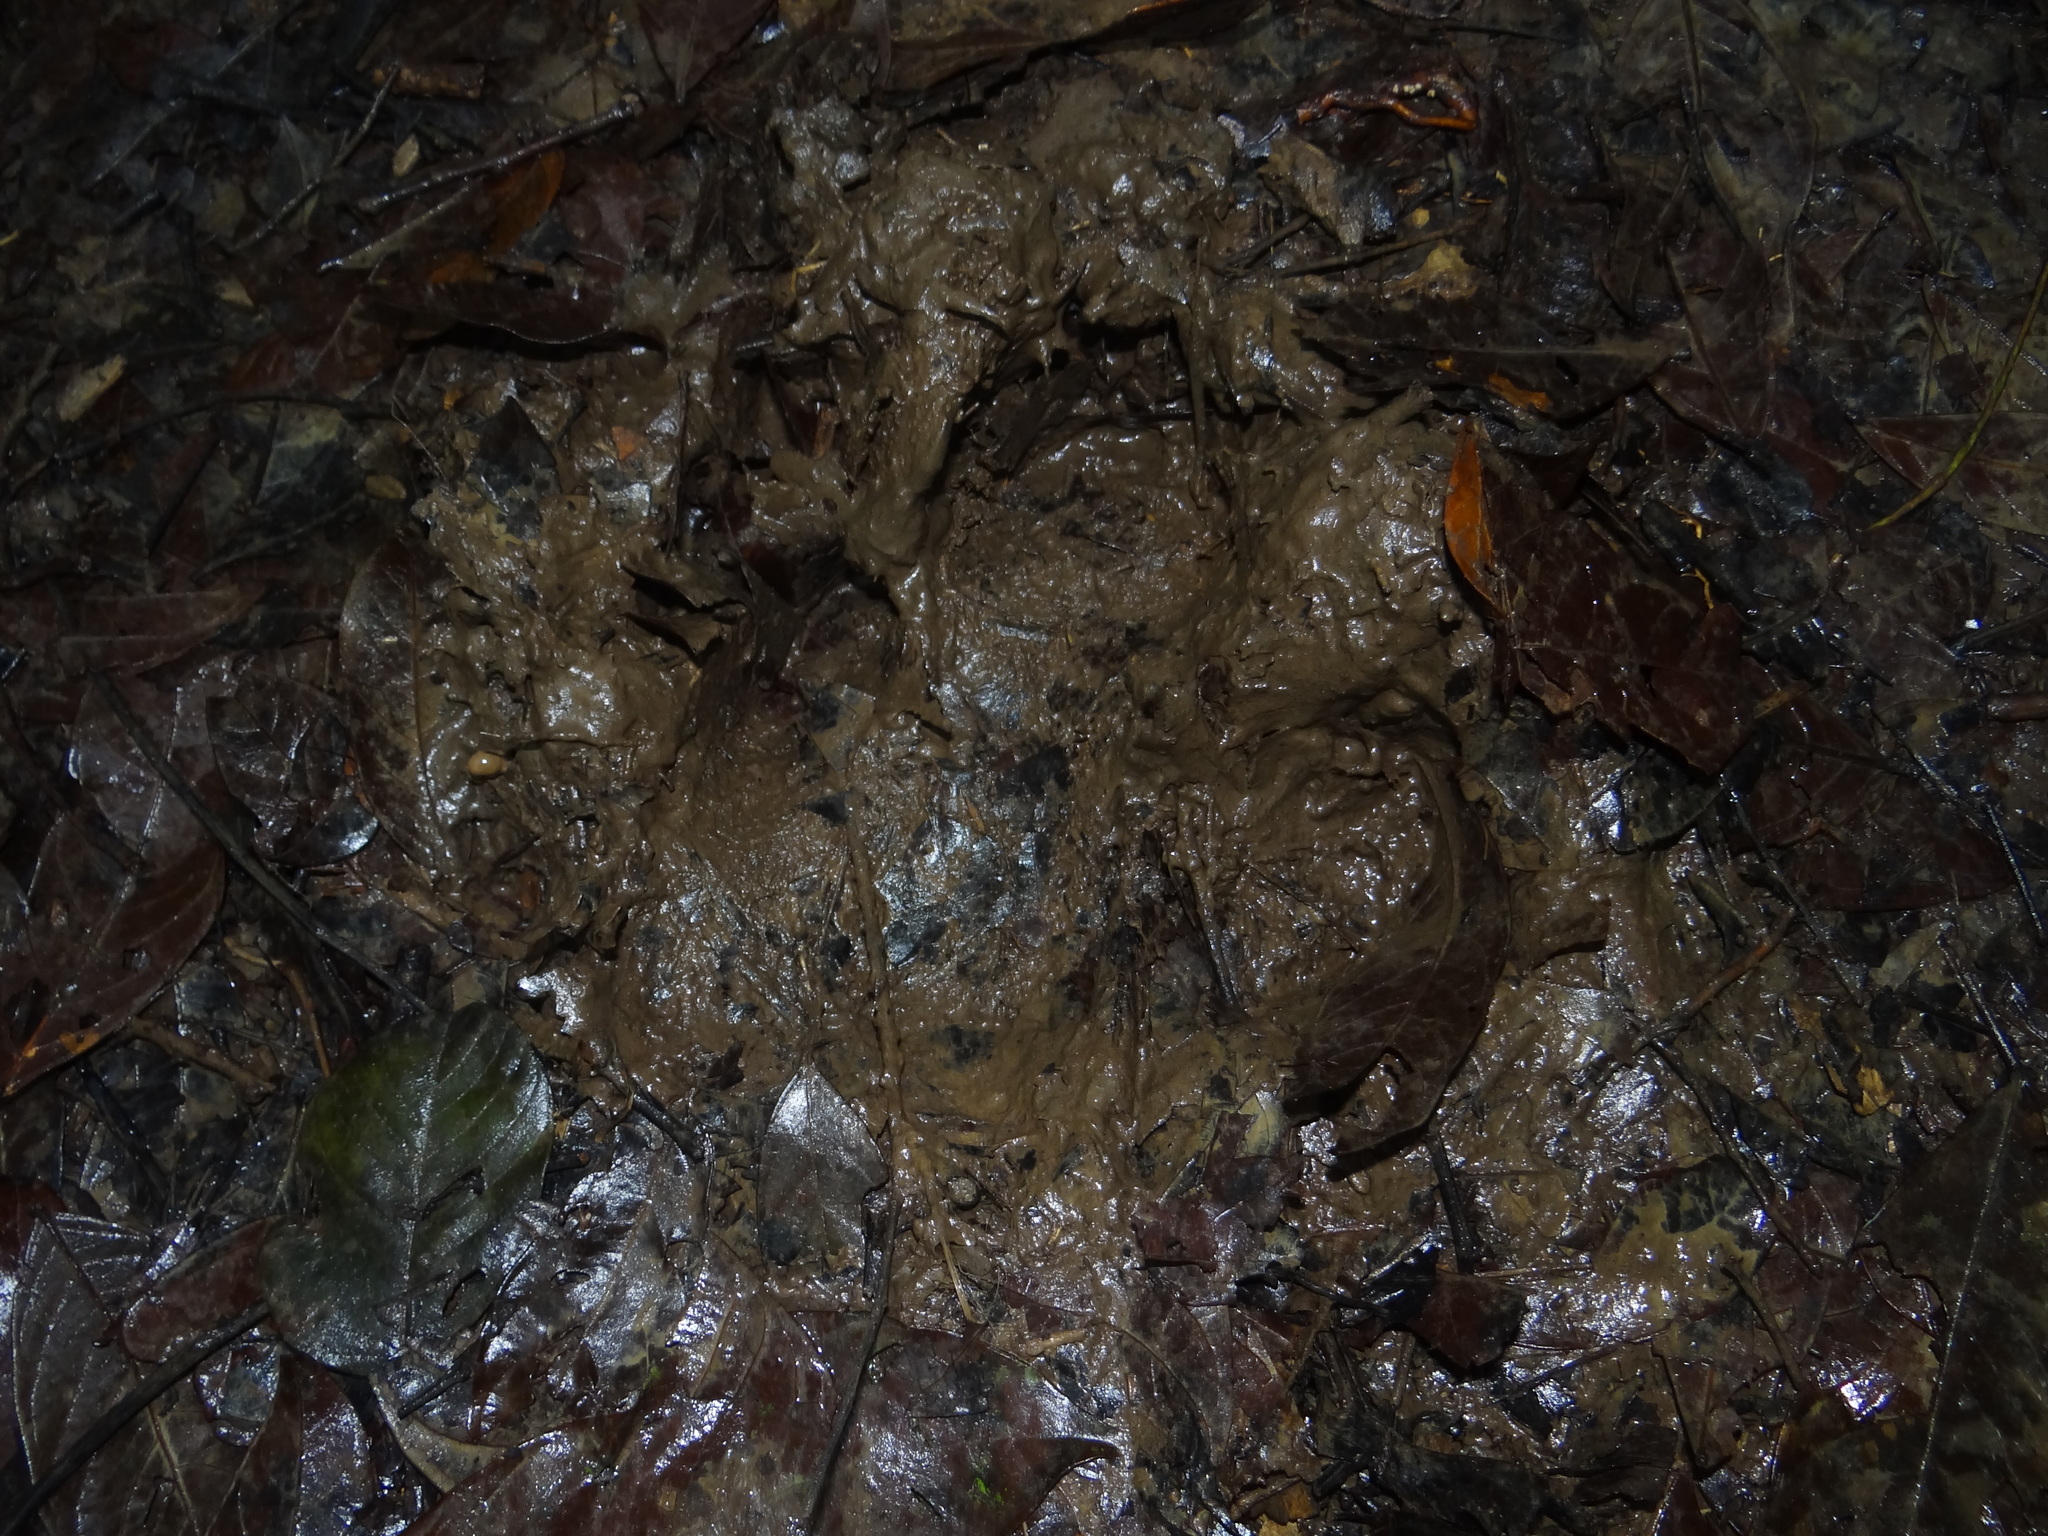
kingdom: Animalia
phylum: Chordata
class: Mammalia
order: Perissodactyla
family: Tapiridae
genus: Tapirella
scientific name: Tapirella bairdii
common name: Baird's tapir
